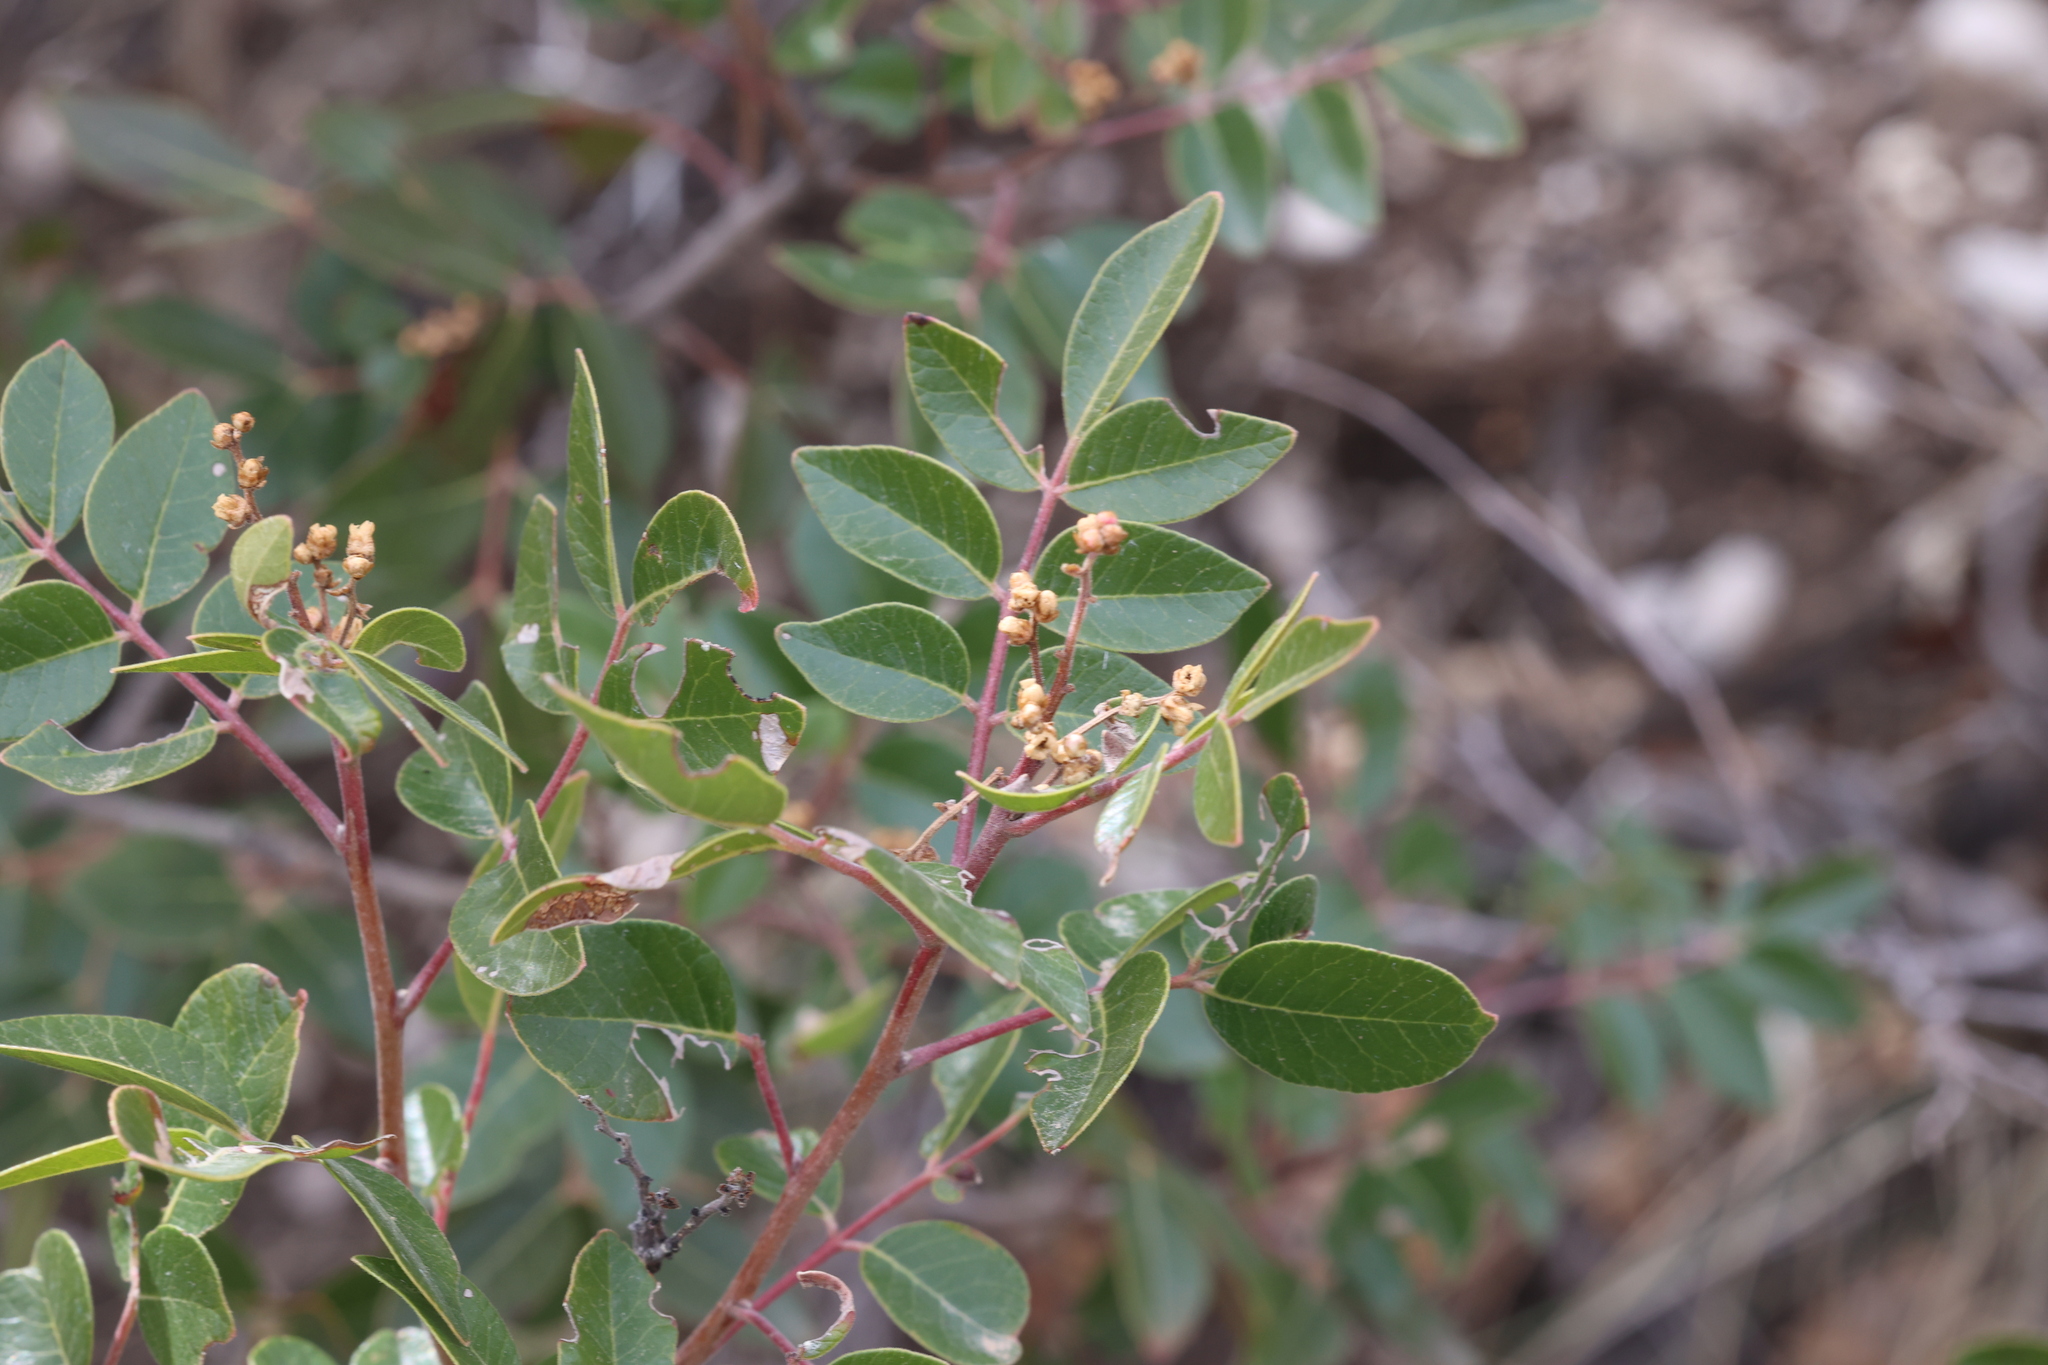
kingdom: Plantae
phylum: Tracheophyta
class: Magnoliopsida
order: Sapindales
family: Anacardiaceae
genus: Rhus
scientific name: Rhus virens
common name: Evergreen sumac
